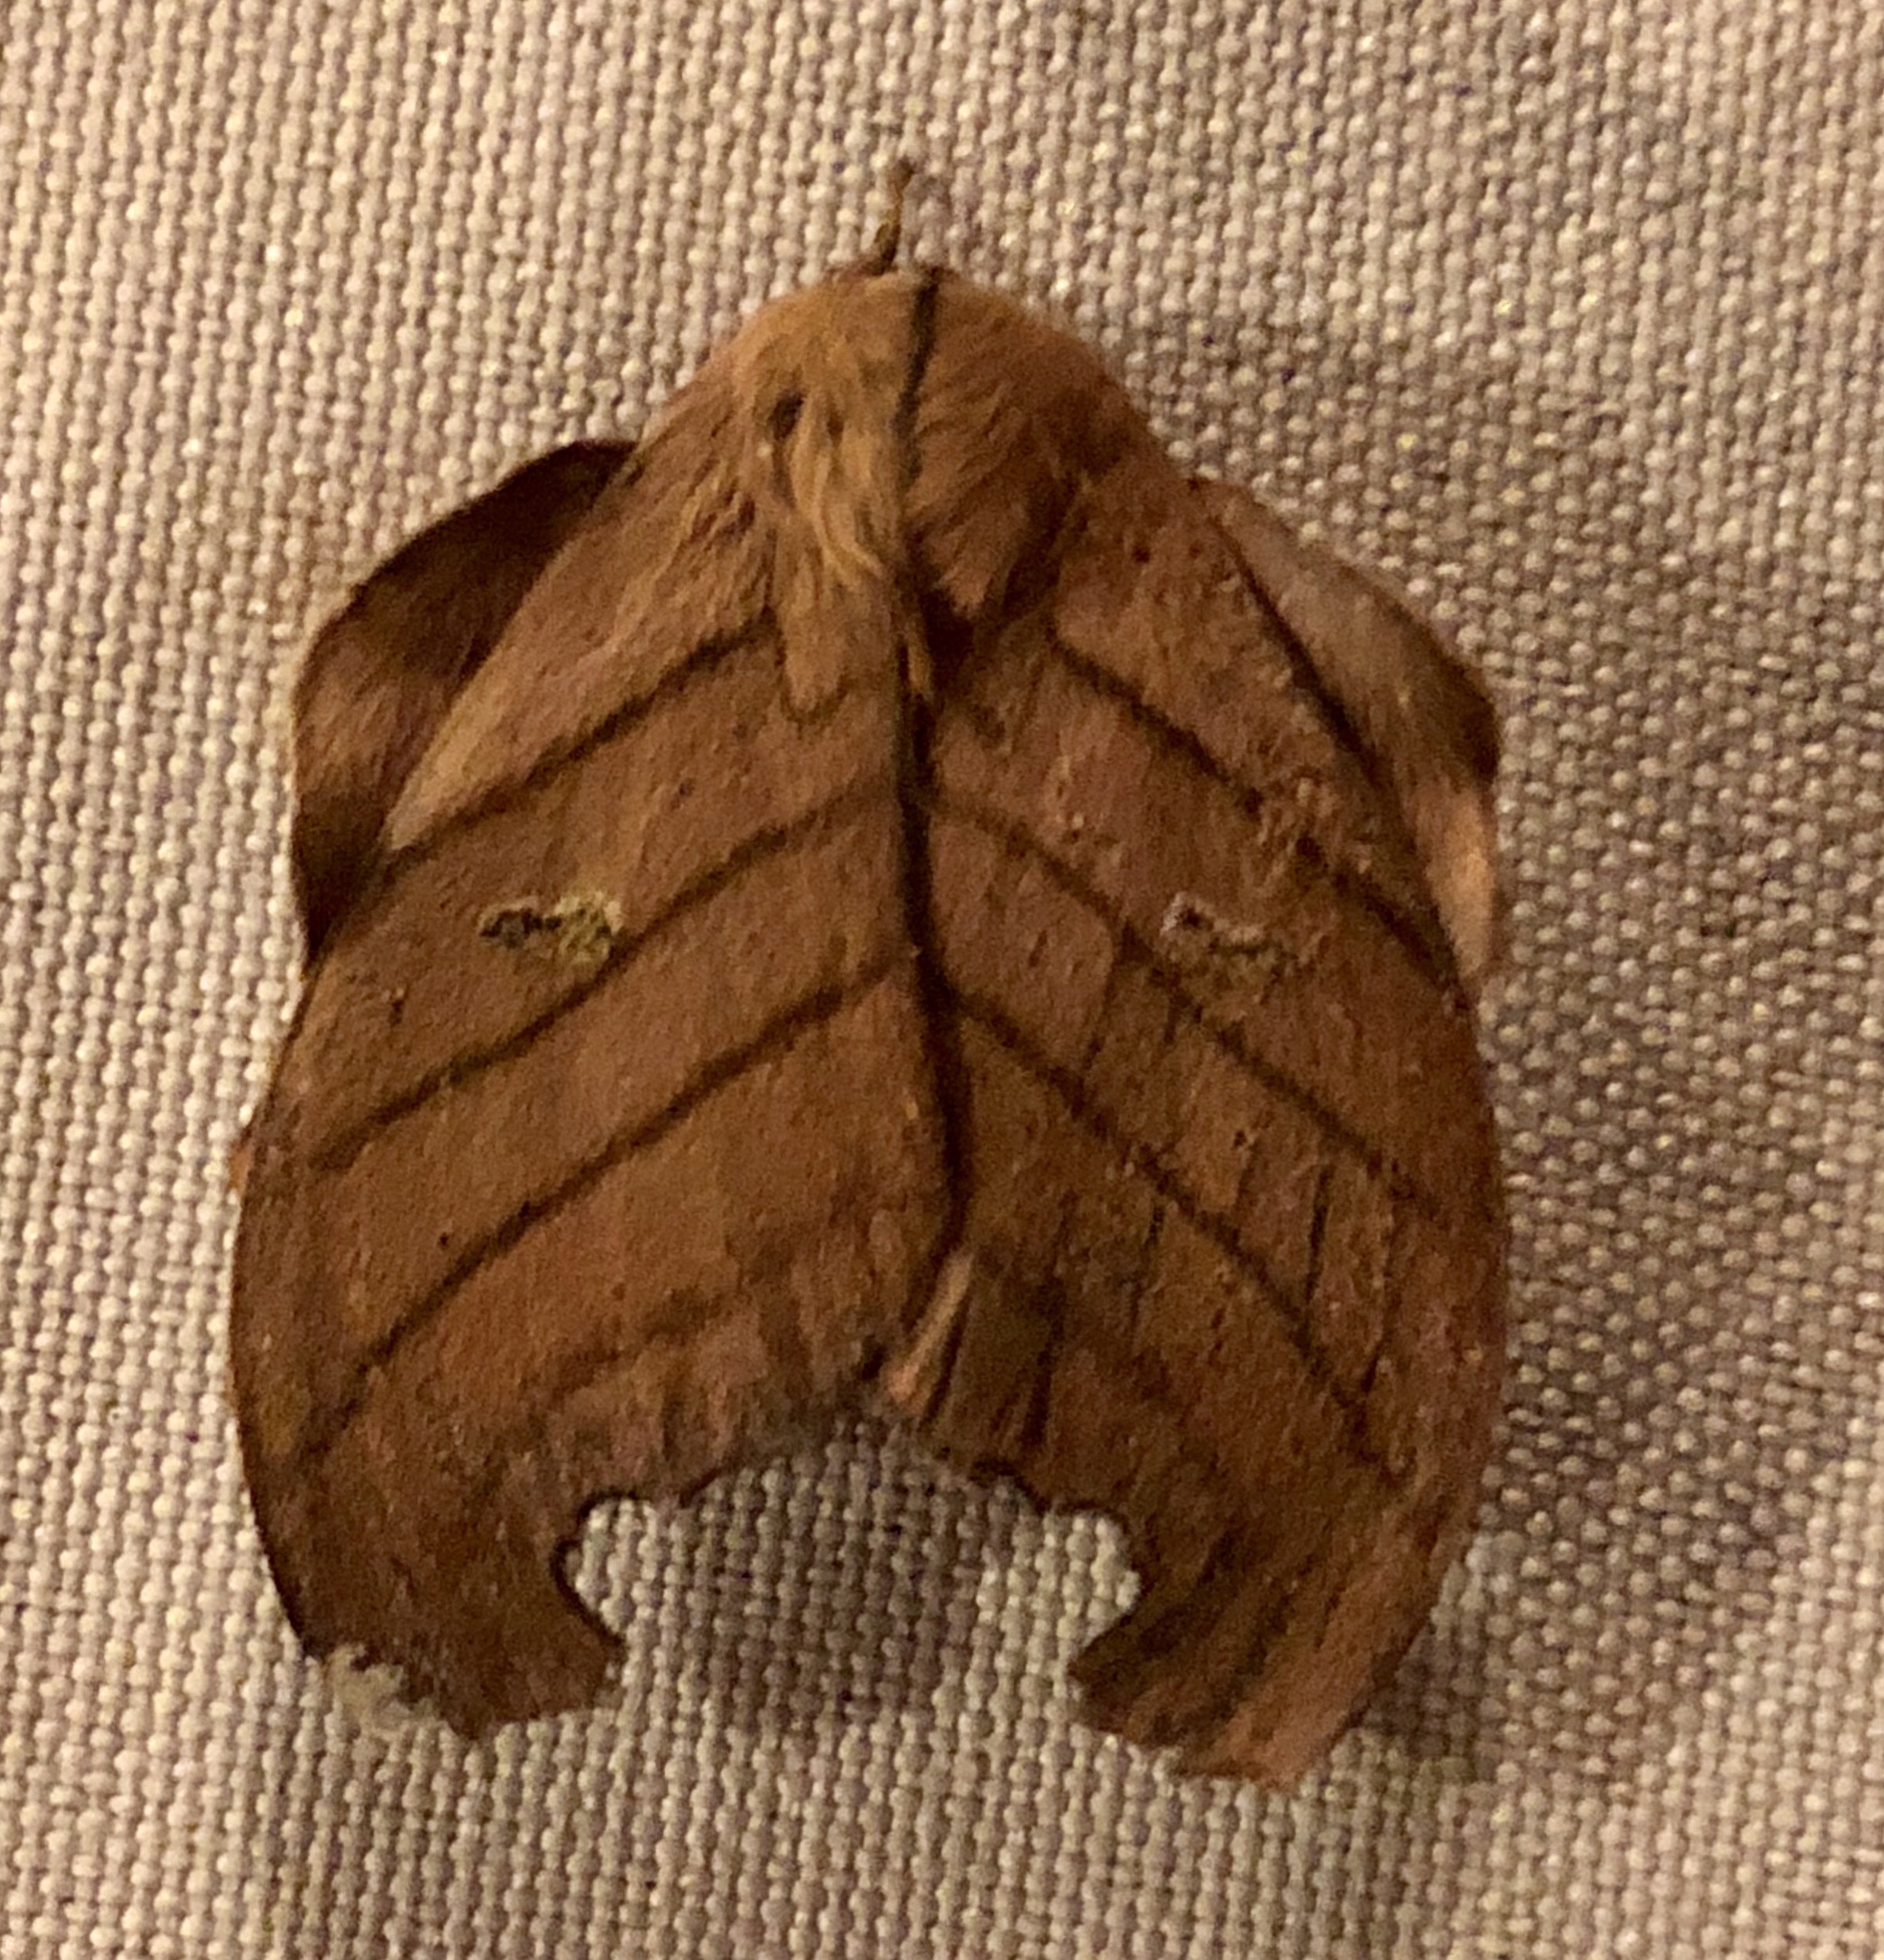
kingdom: Animalia
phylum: Arthropoda
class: Insecta
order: Lepidoptera
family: Saturniidae
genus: Hyperchiria
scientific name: Hyperchiria plicata
